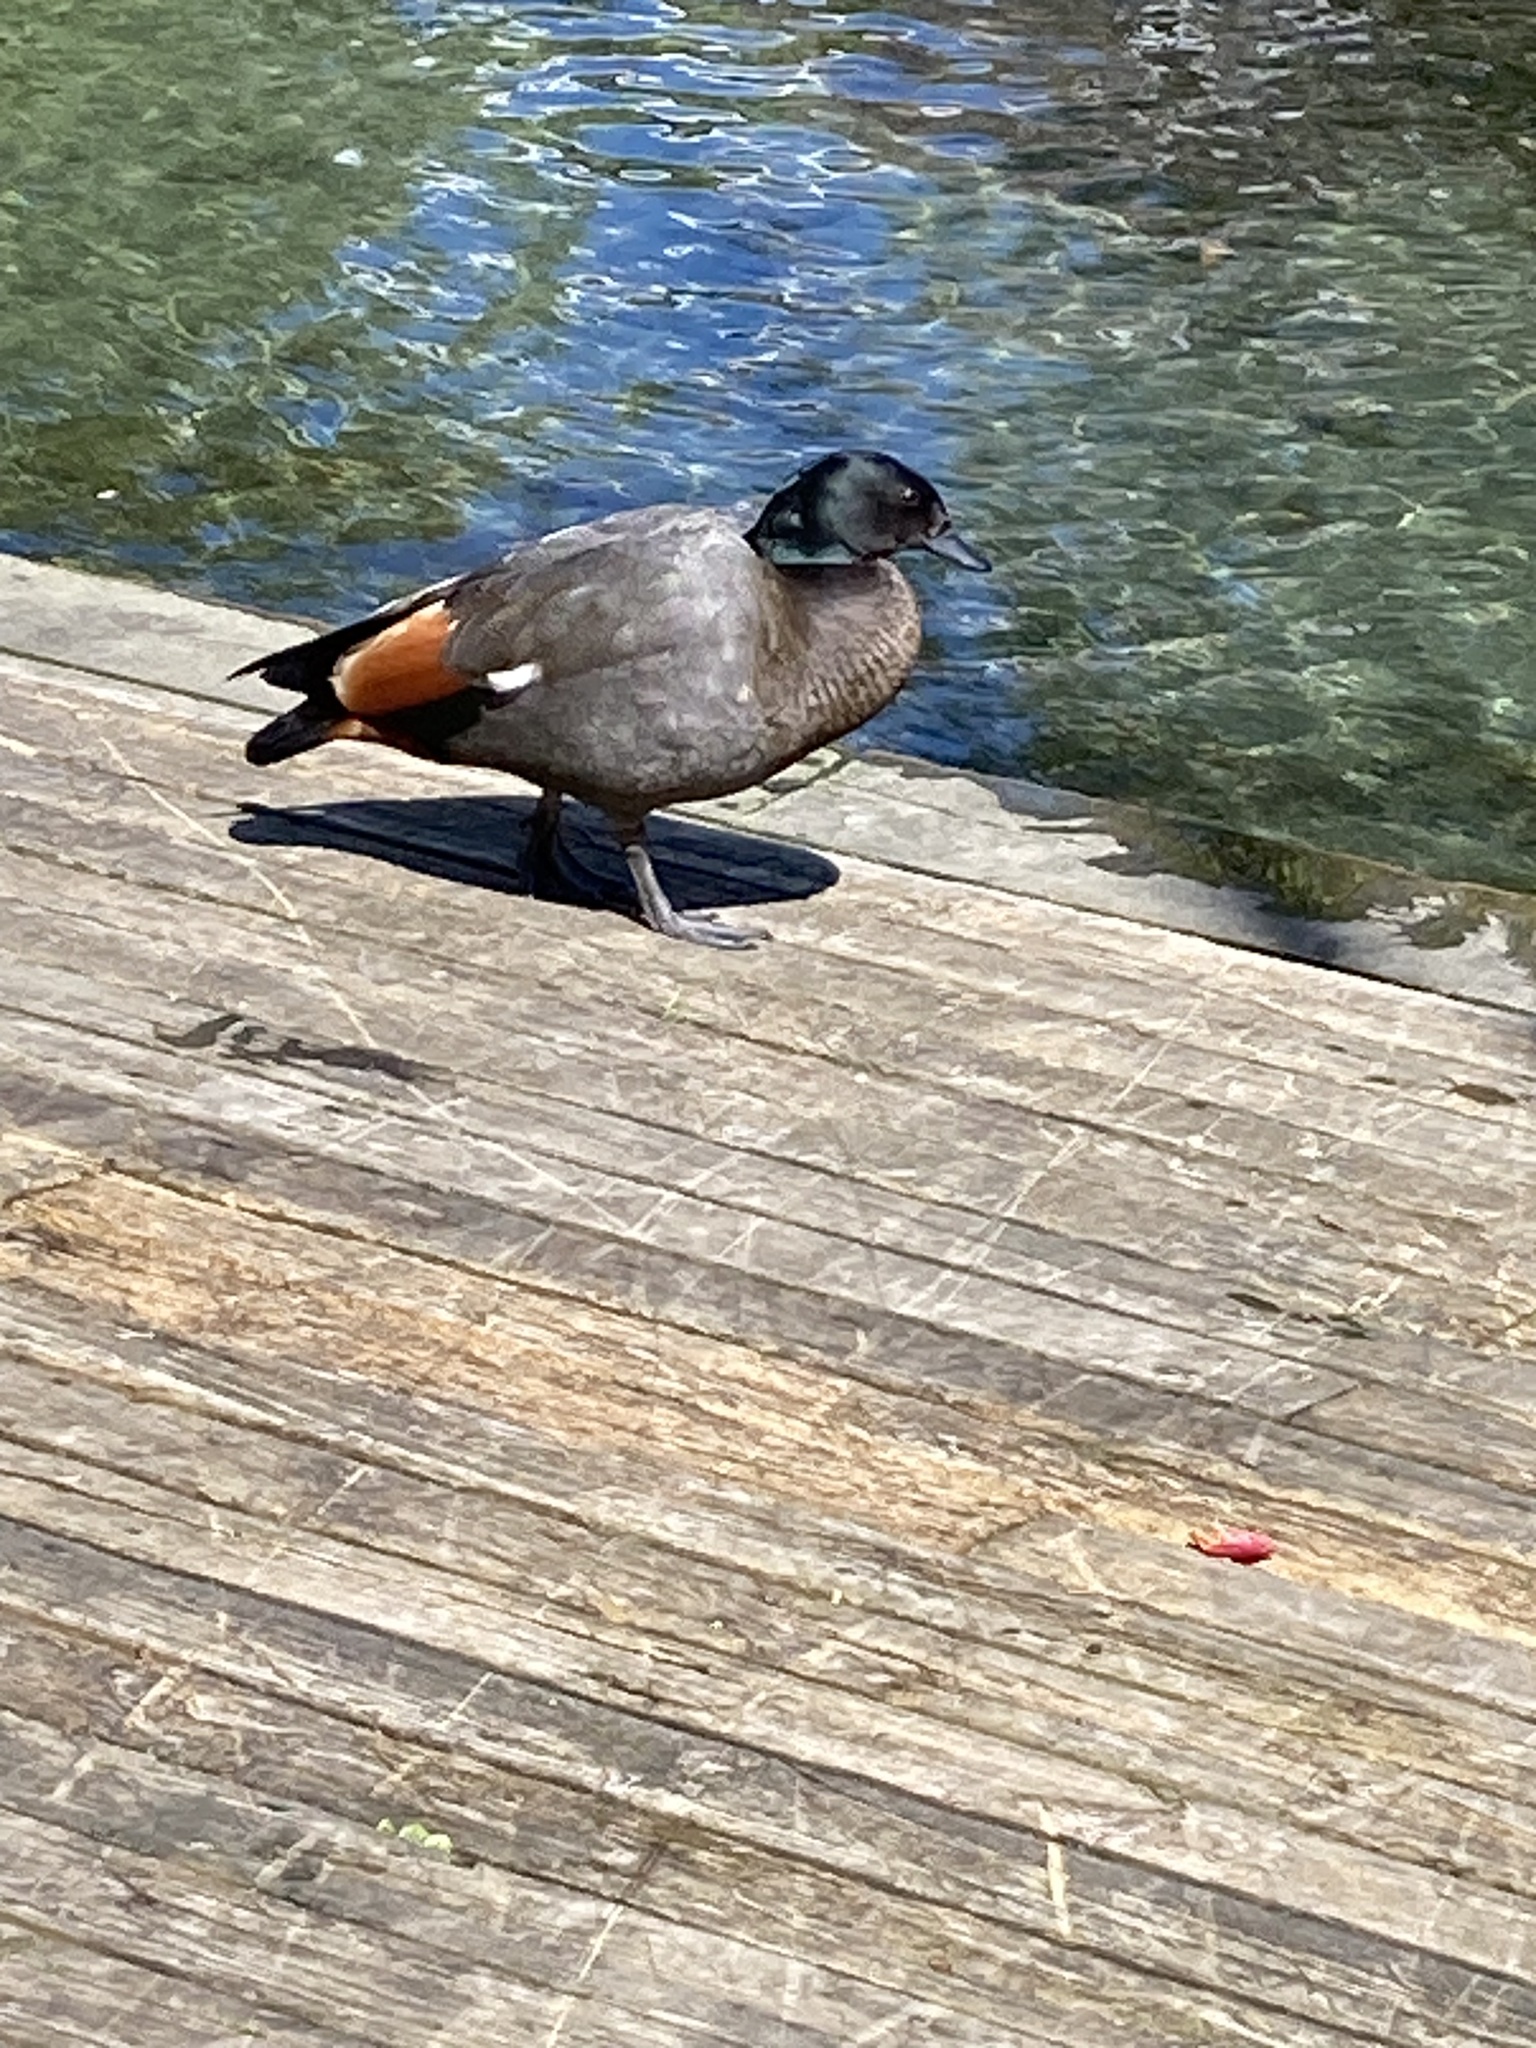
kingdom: Animalia
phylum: Chordata
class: Aves
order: Anseriformes
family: Anatidae
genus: Tadorna
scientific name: Tadorna variegata
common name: Paradise shelduck
